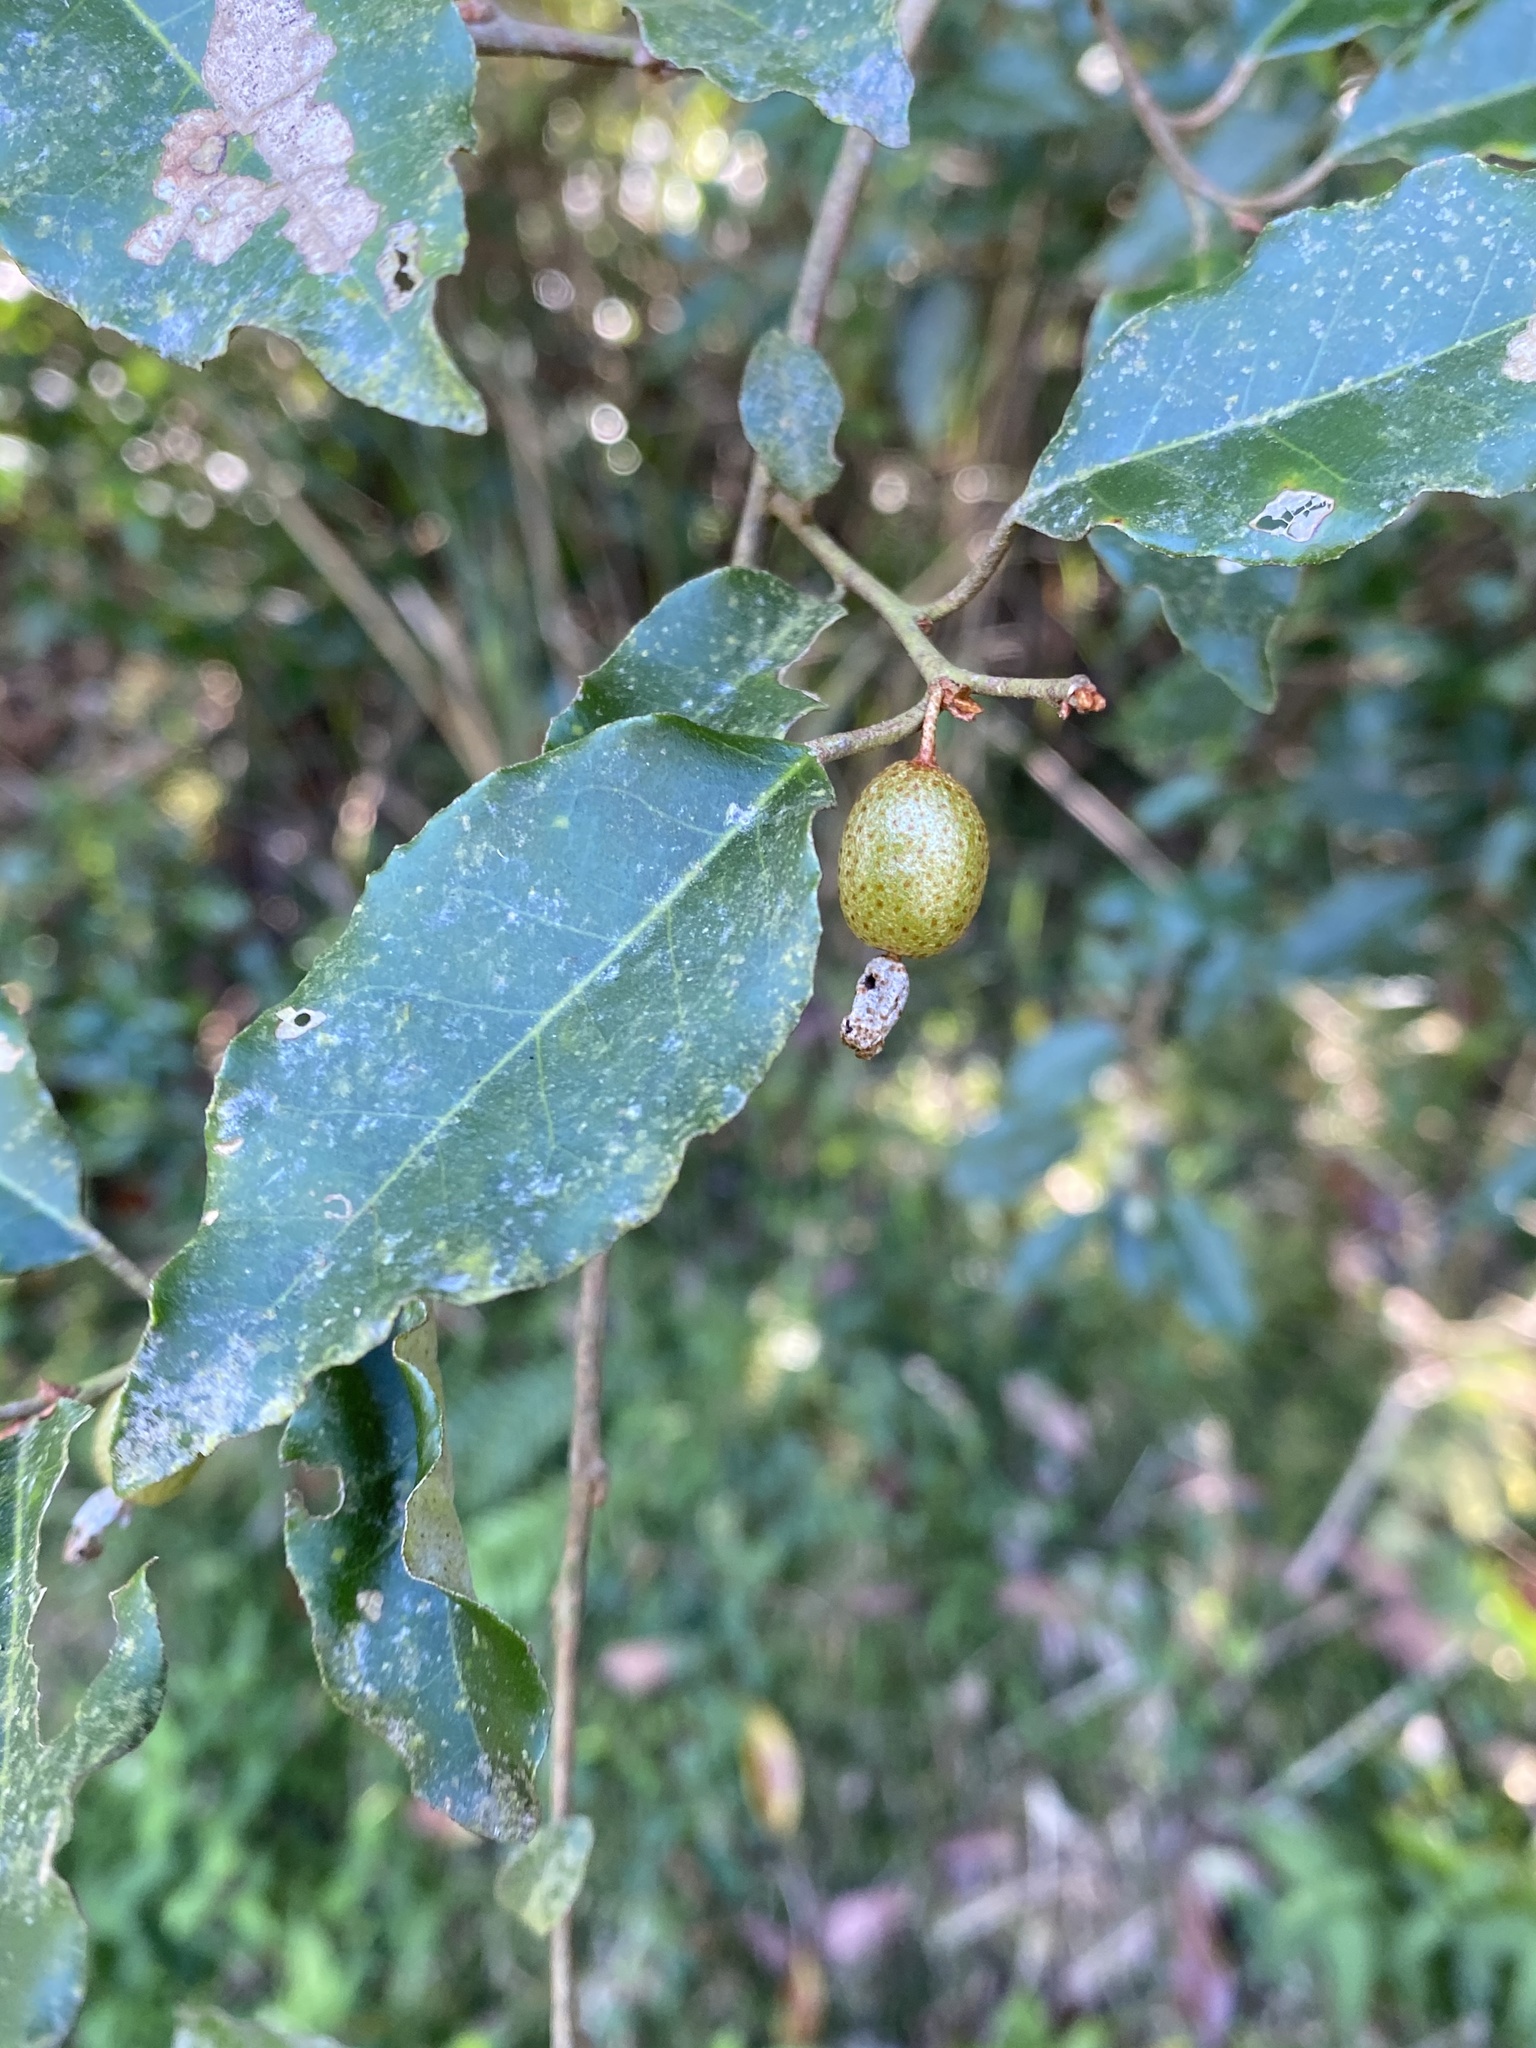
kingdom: Plantae
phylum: Tracheophyta
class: Magnoliopsida
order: Rosales
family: Elaeagnaceae
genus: Elaeagnus
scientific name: Elaeagnus thunbergii
